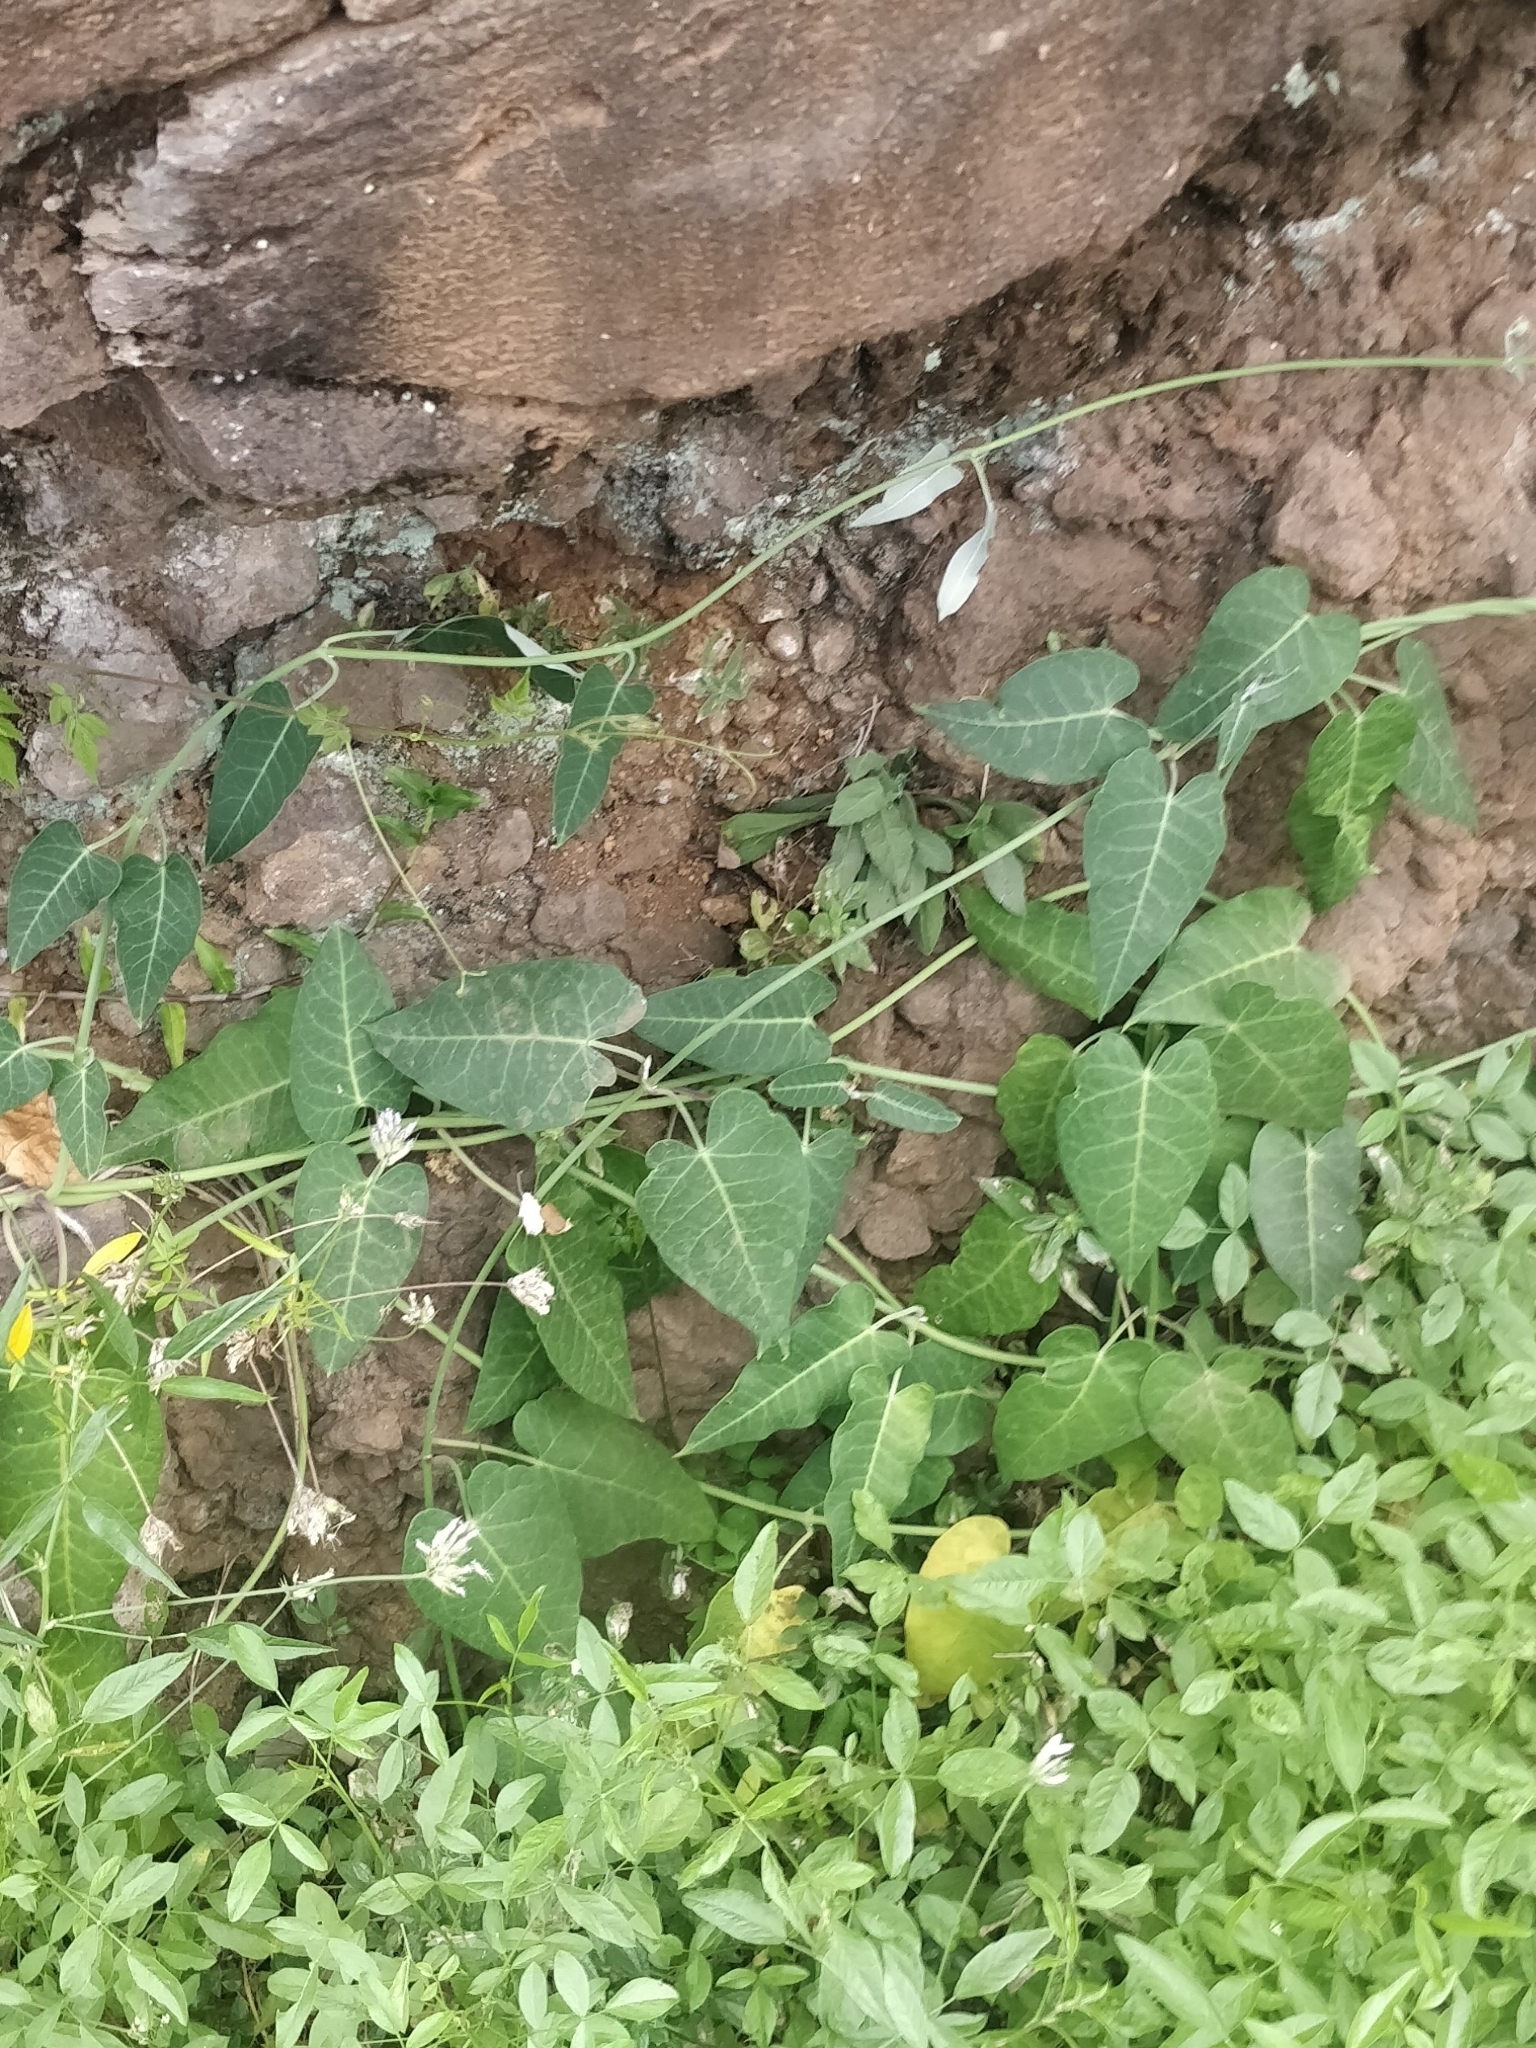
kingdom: Plantae
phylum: Tracheophyta
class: Magnoliopsida
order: Gentianales
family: Apocynaceae
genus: Araujia
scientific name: Araujia sericifera
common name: White bladderflower
